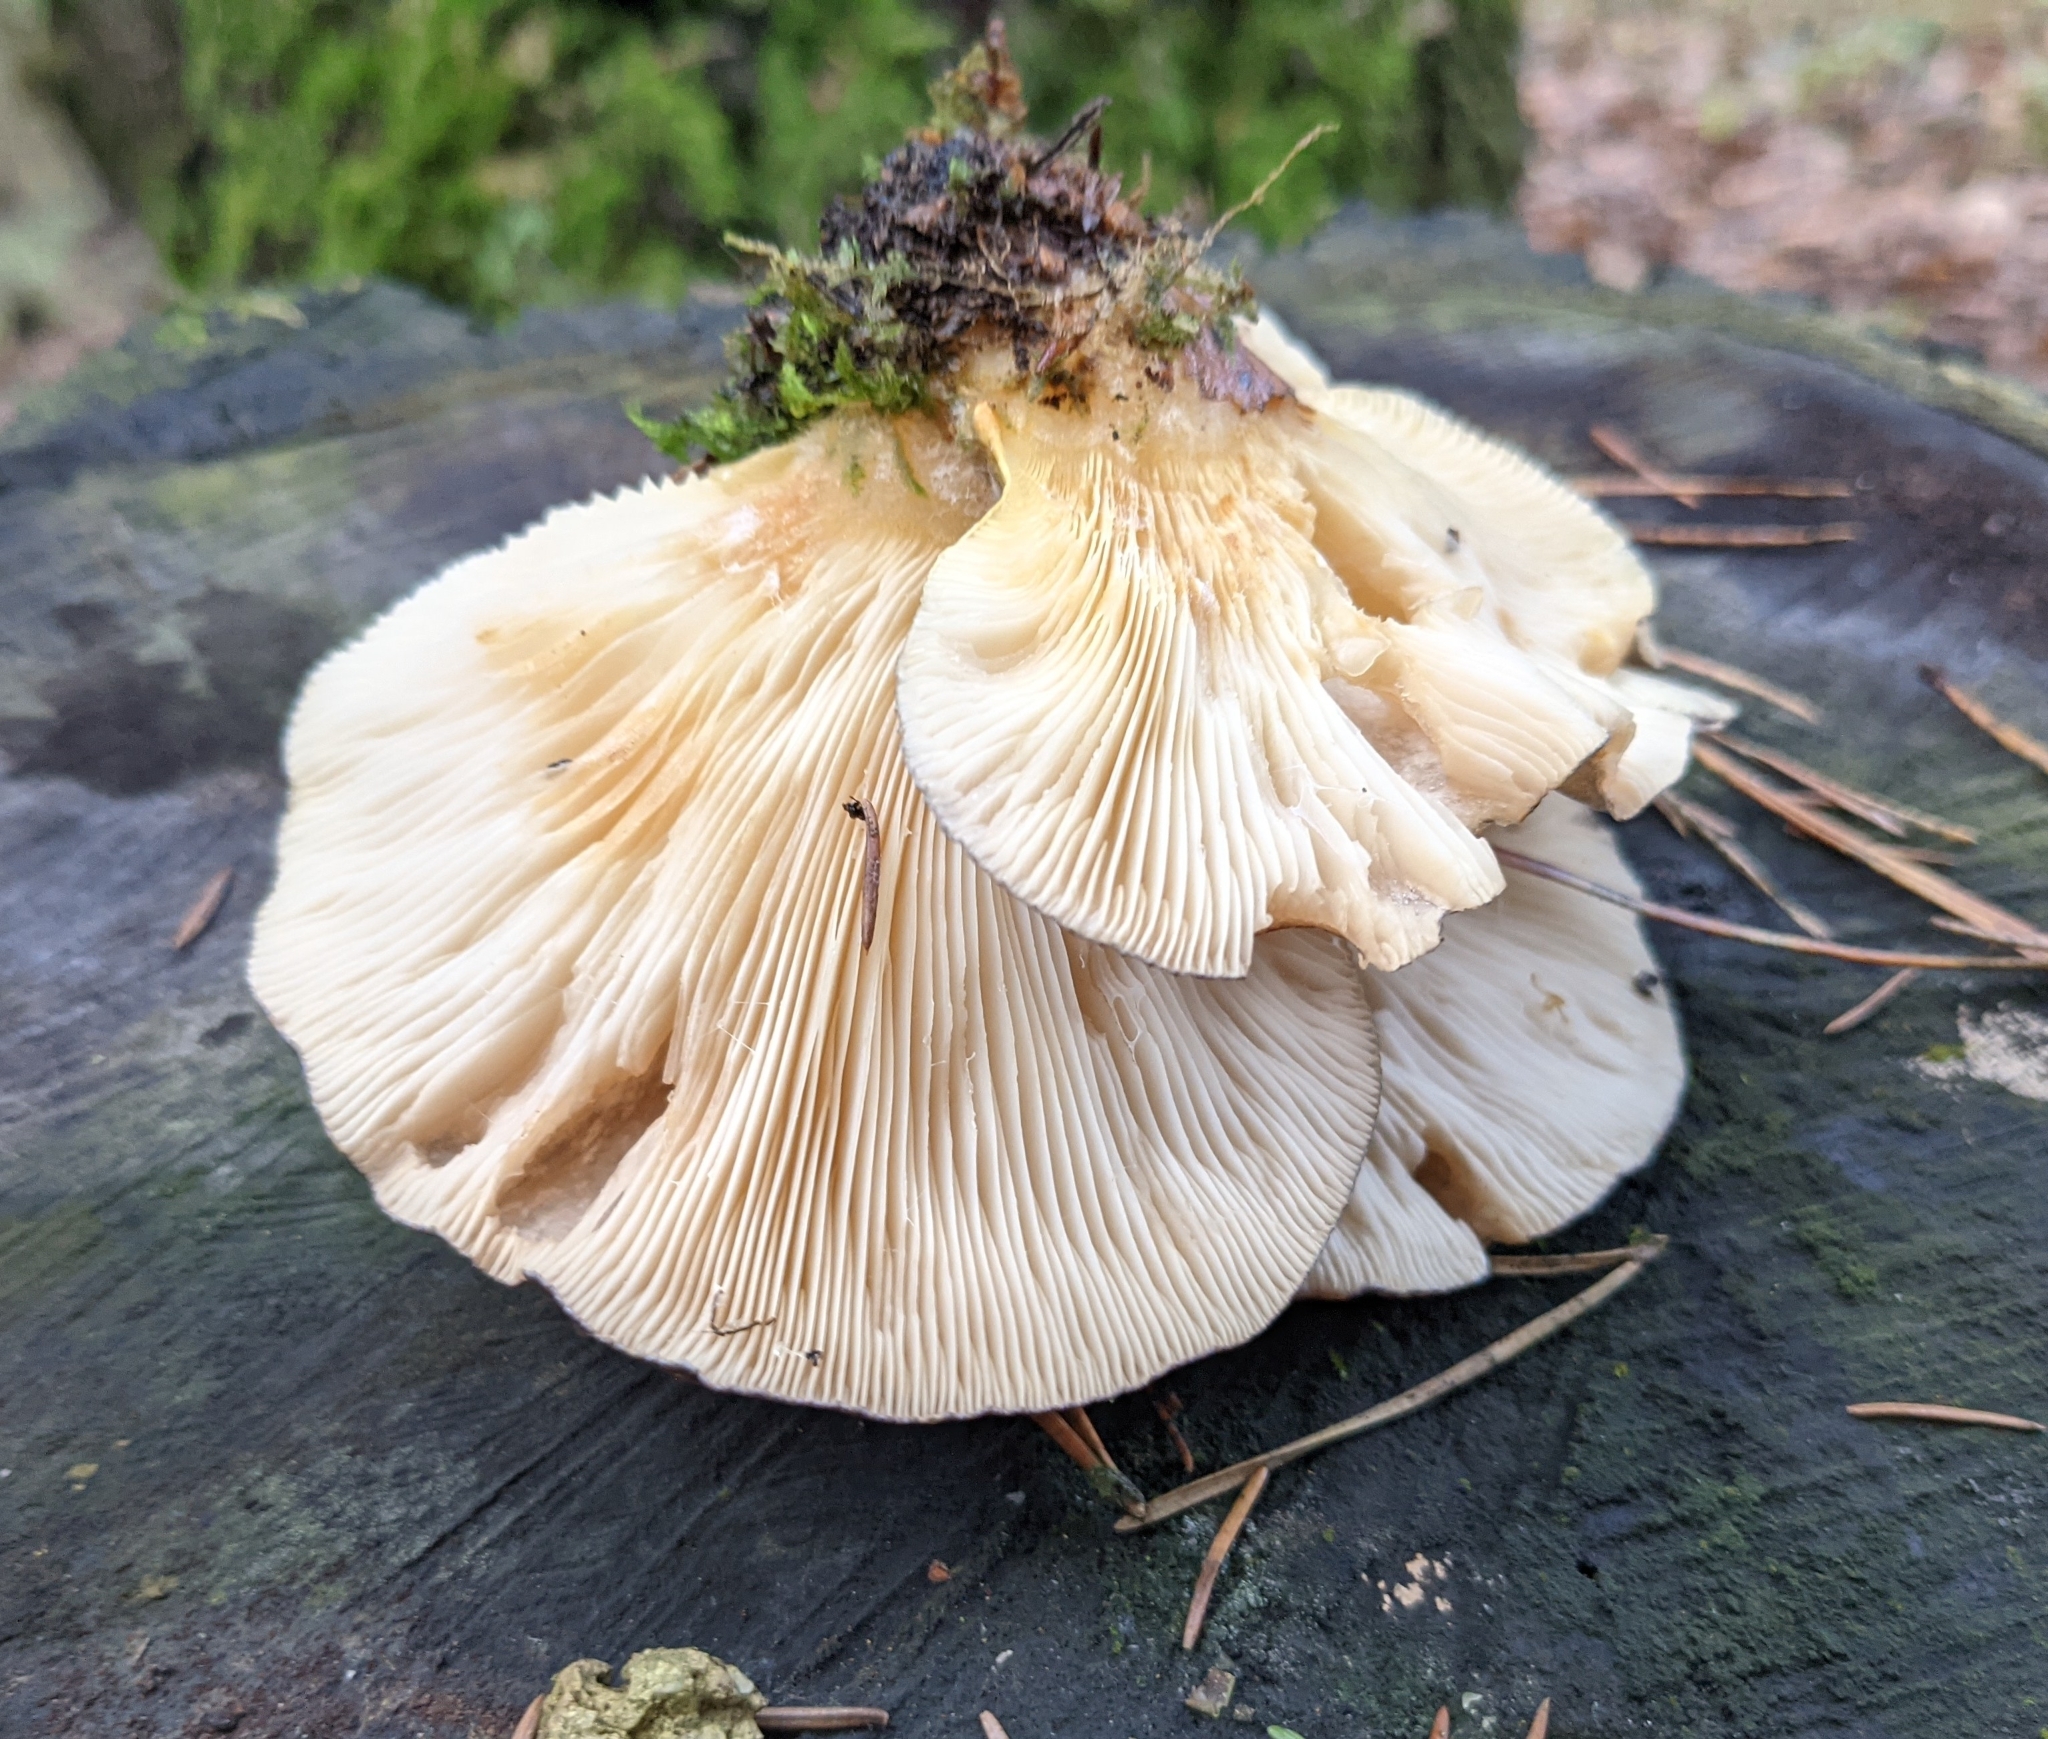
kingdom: Fungi
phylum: Basidiomycota
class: Agaricomycetes
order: Agaricales
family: Sarcomyxaceae
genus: Sarcomyxa
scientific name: Sarcomyxa serotina
